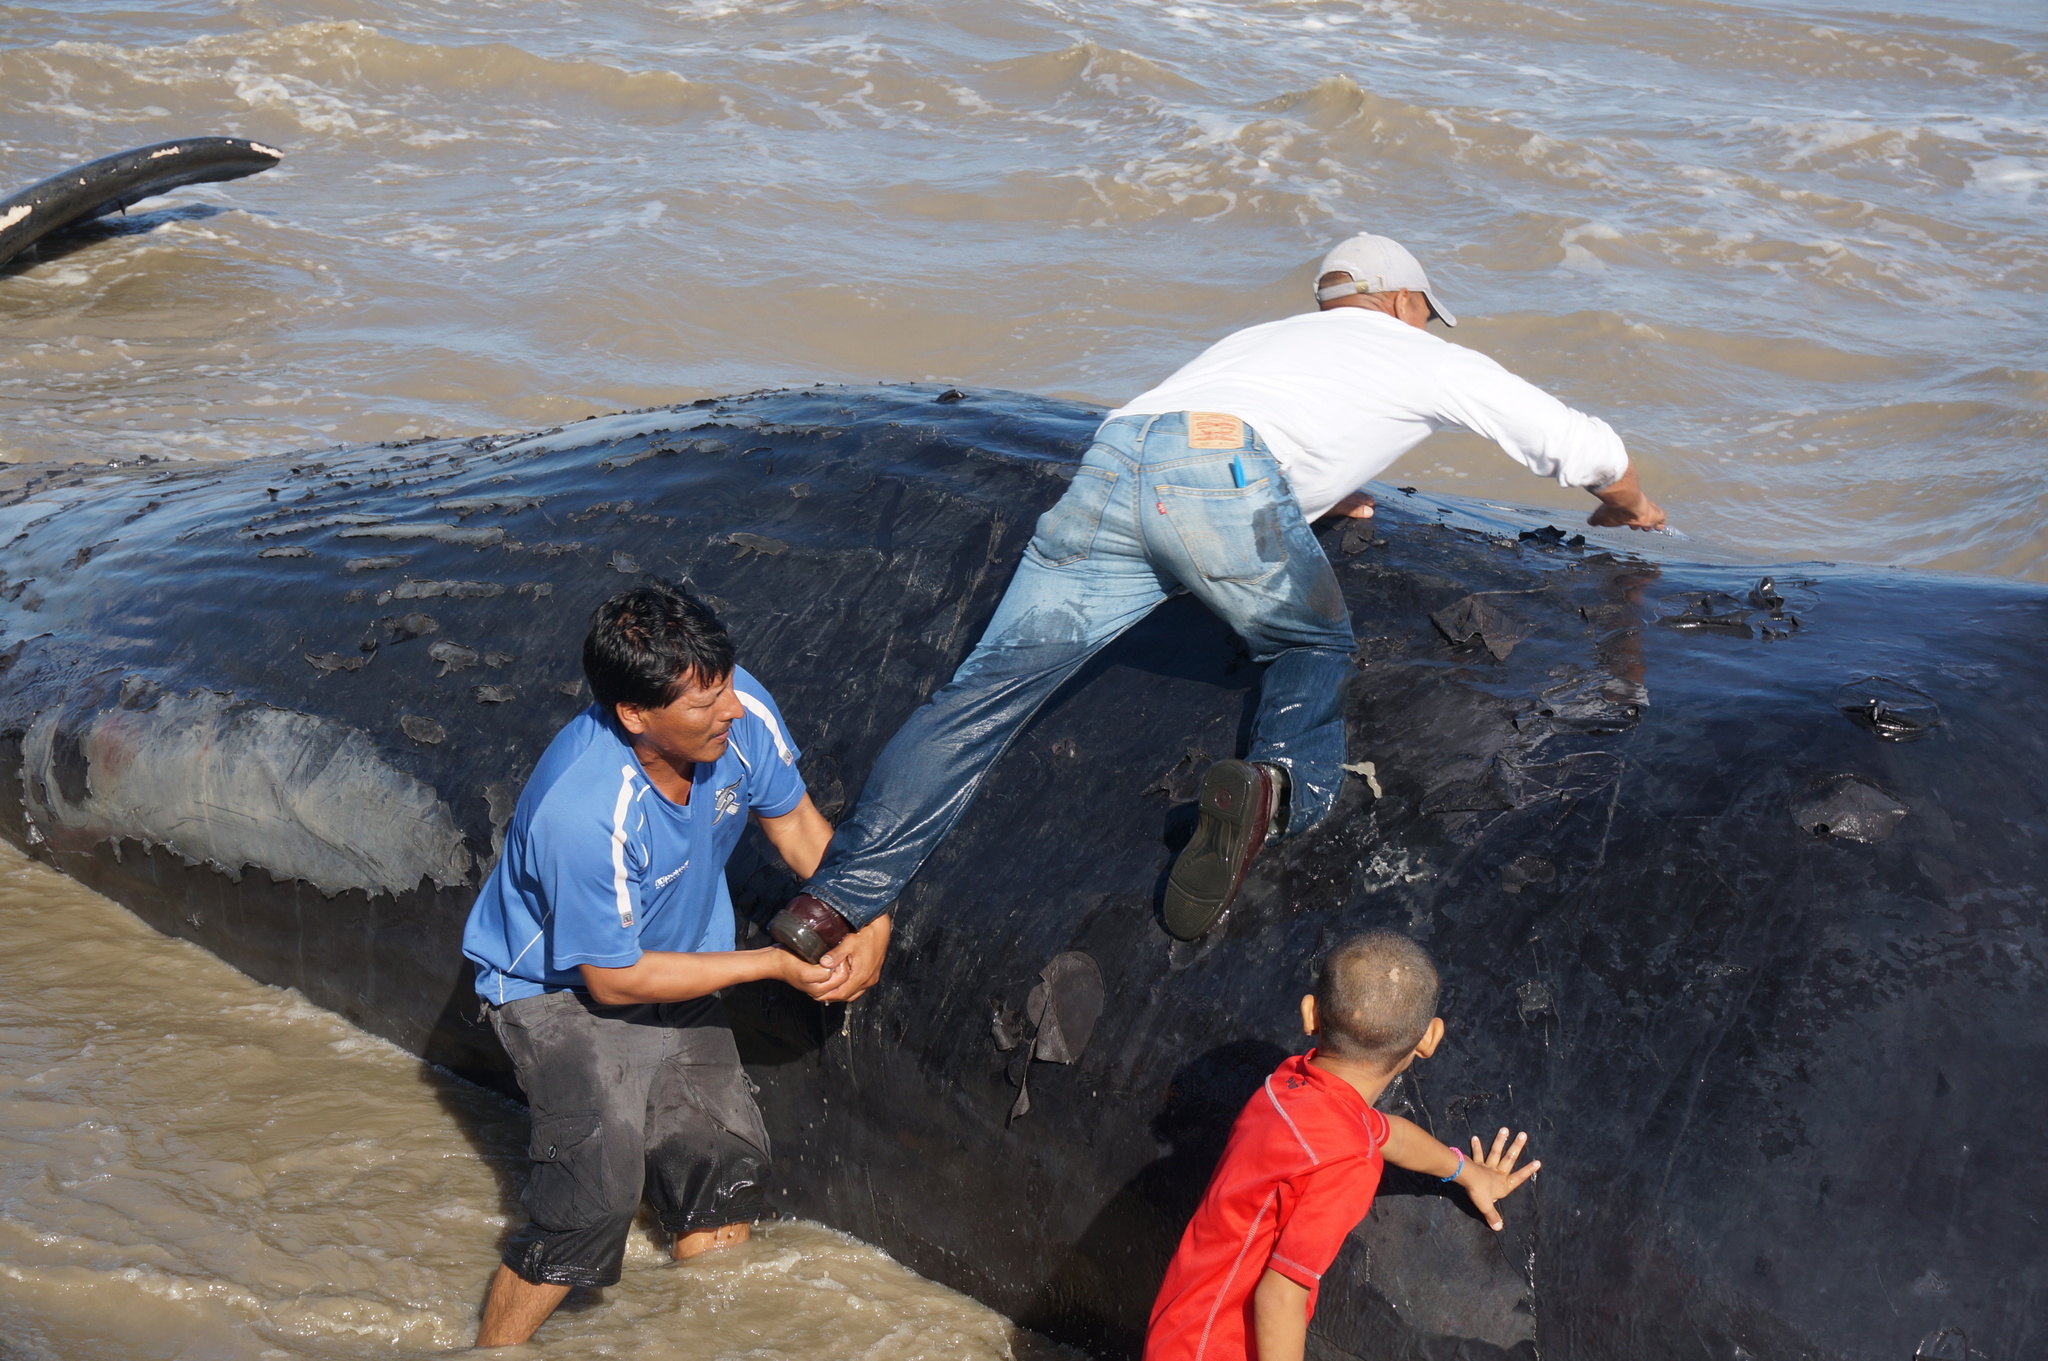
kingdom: Animalia
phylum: Chordata
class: Mammalia
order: Cetacea
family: Physeteridae
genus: Physeter
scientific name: Physeter macrocephalus
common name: Sperm whale
